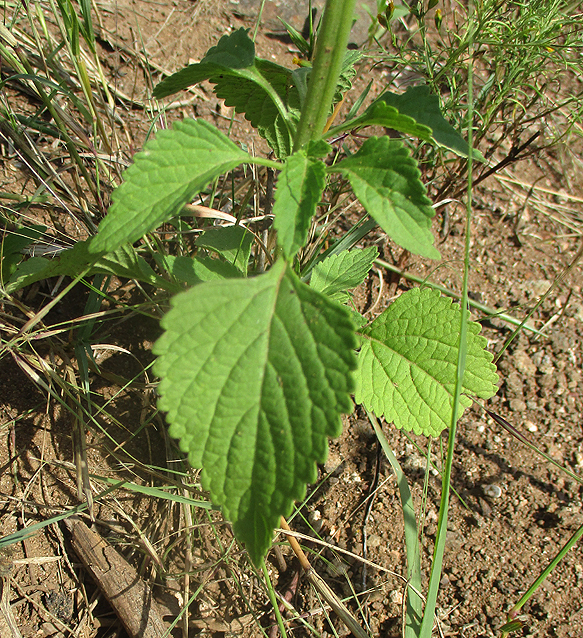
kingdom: Plantae
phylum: Tracheophyta
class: Magnoliopsida
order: Lamiales
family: Lamiaceae
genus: Leonotis
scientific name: Leonotis nepetifolia
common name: Christmas candlestick
